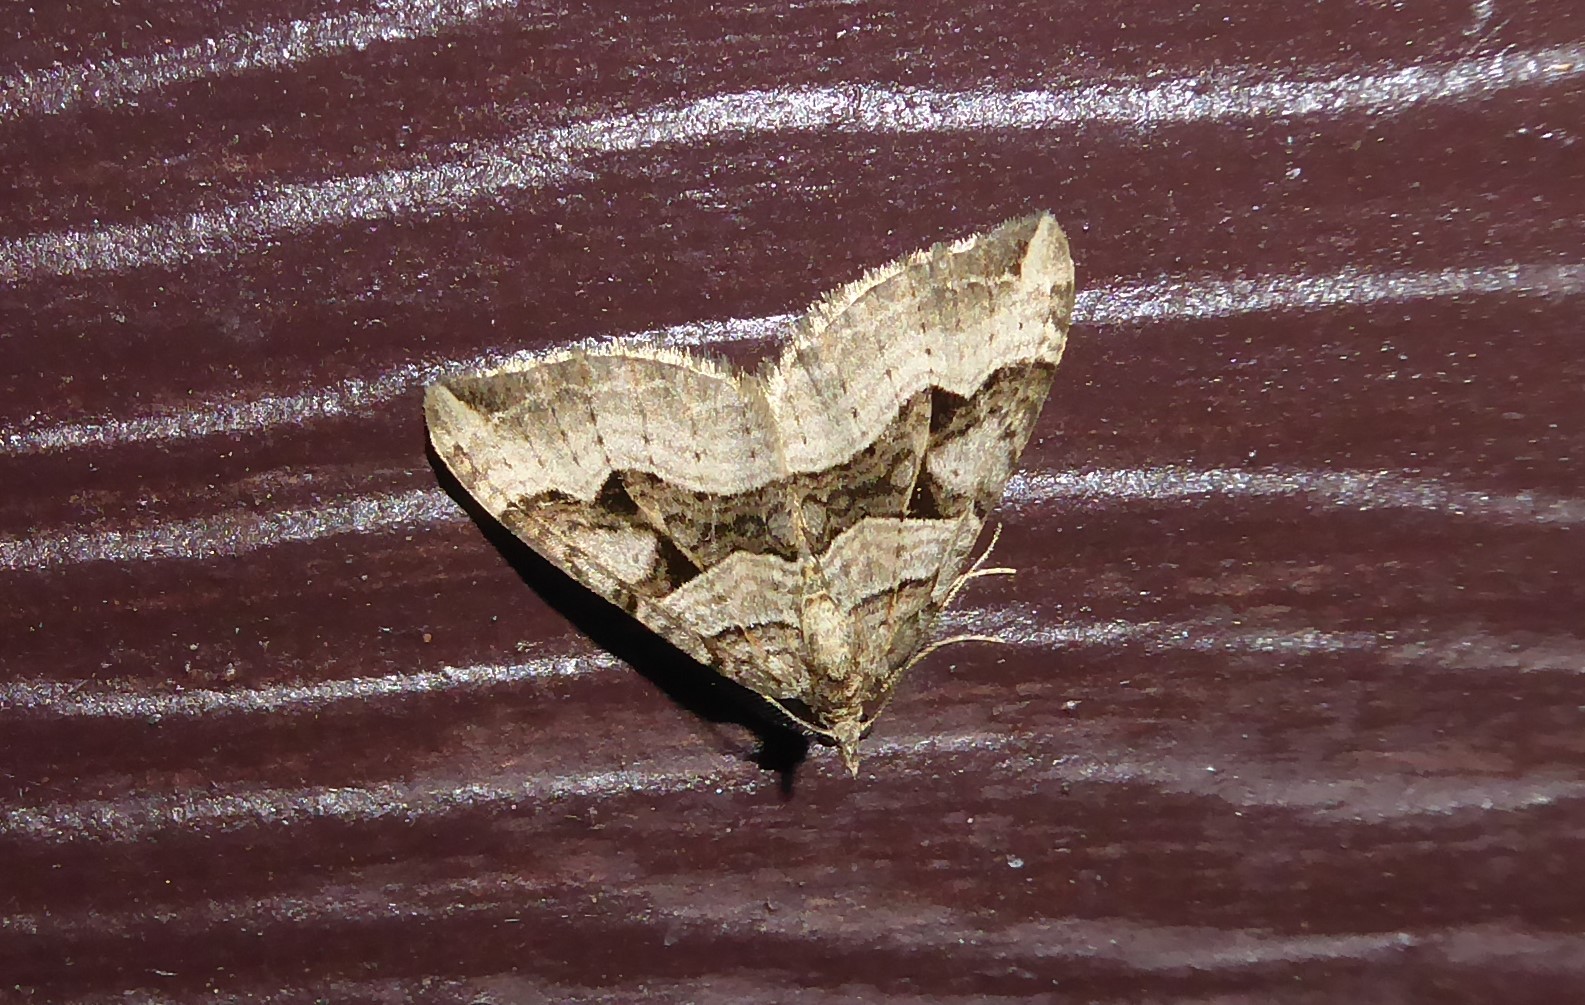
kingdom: Animalia
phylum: Arthropoda
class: Insecta
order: Lepidoptera
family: Geometridae
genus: Xanthorhoe
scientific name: Xanthorhoe semifissata
